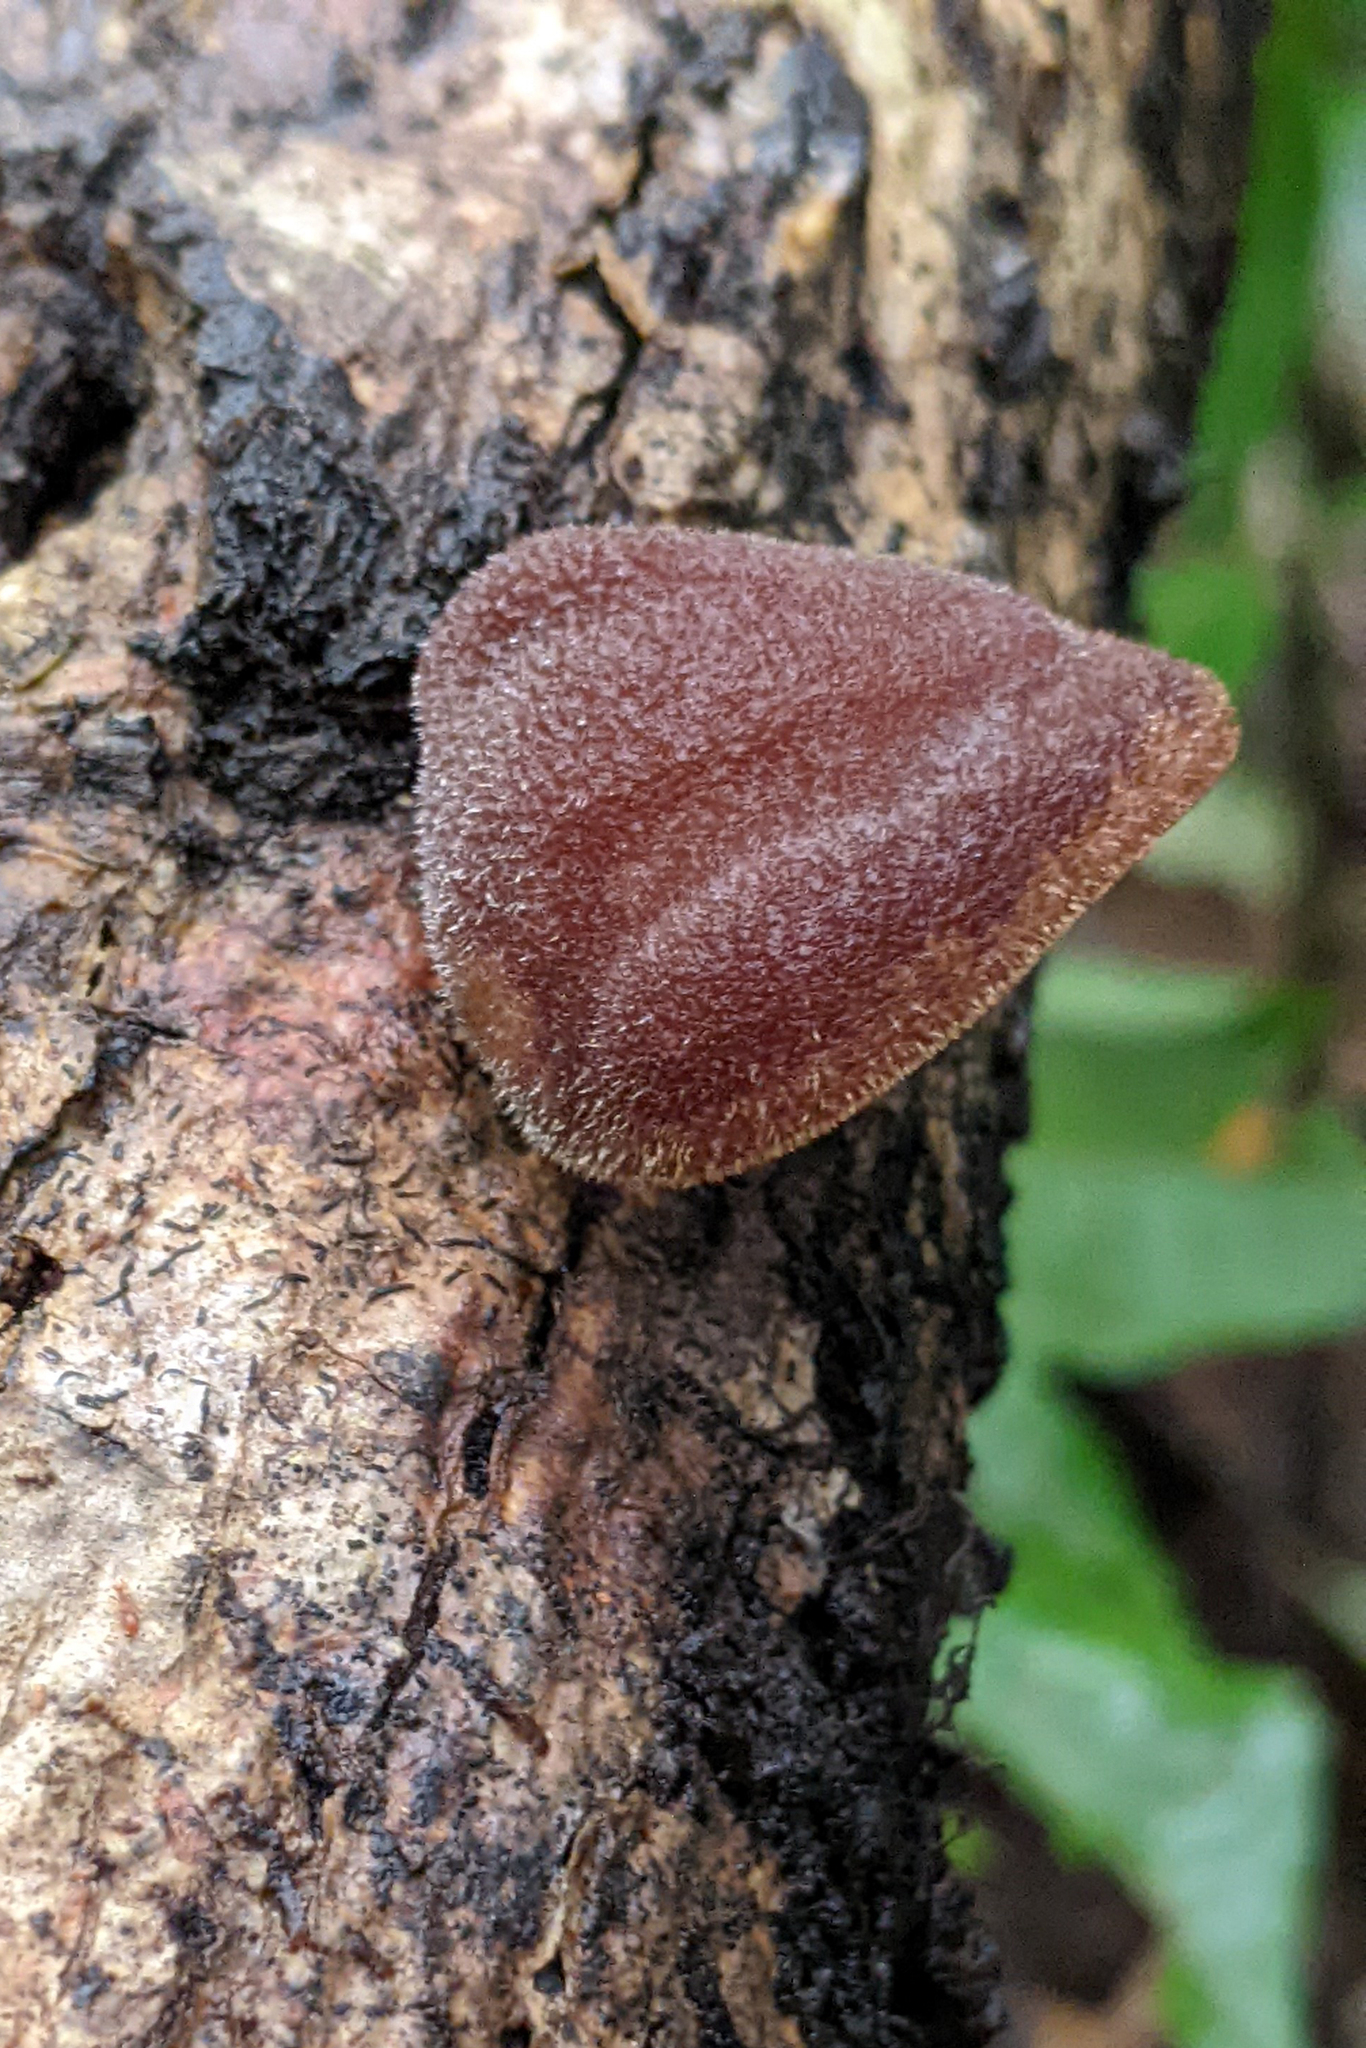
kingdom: Fungi
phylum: Basidiomycota
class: Agaricomycetes
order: Auriculariales
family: Auriculariaceae
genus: Auricularia
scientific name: Auricularia nigricans
